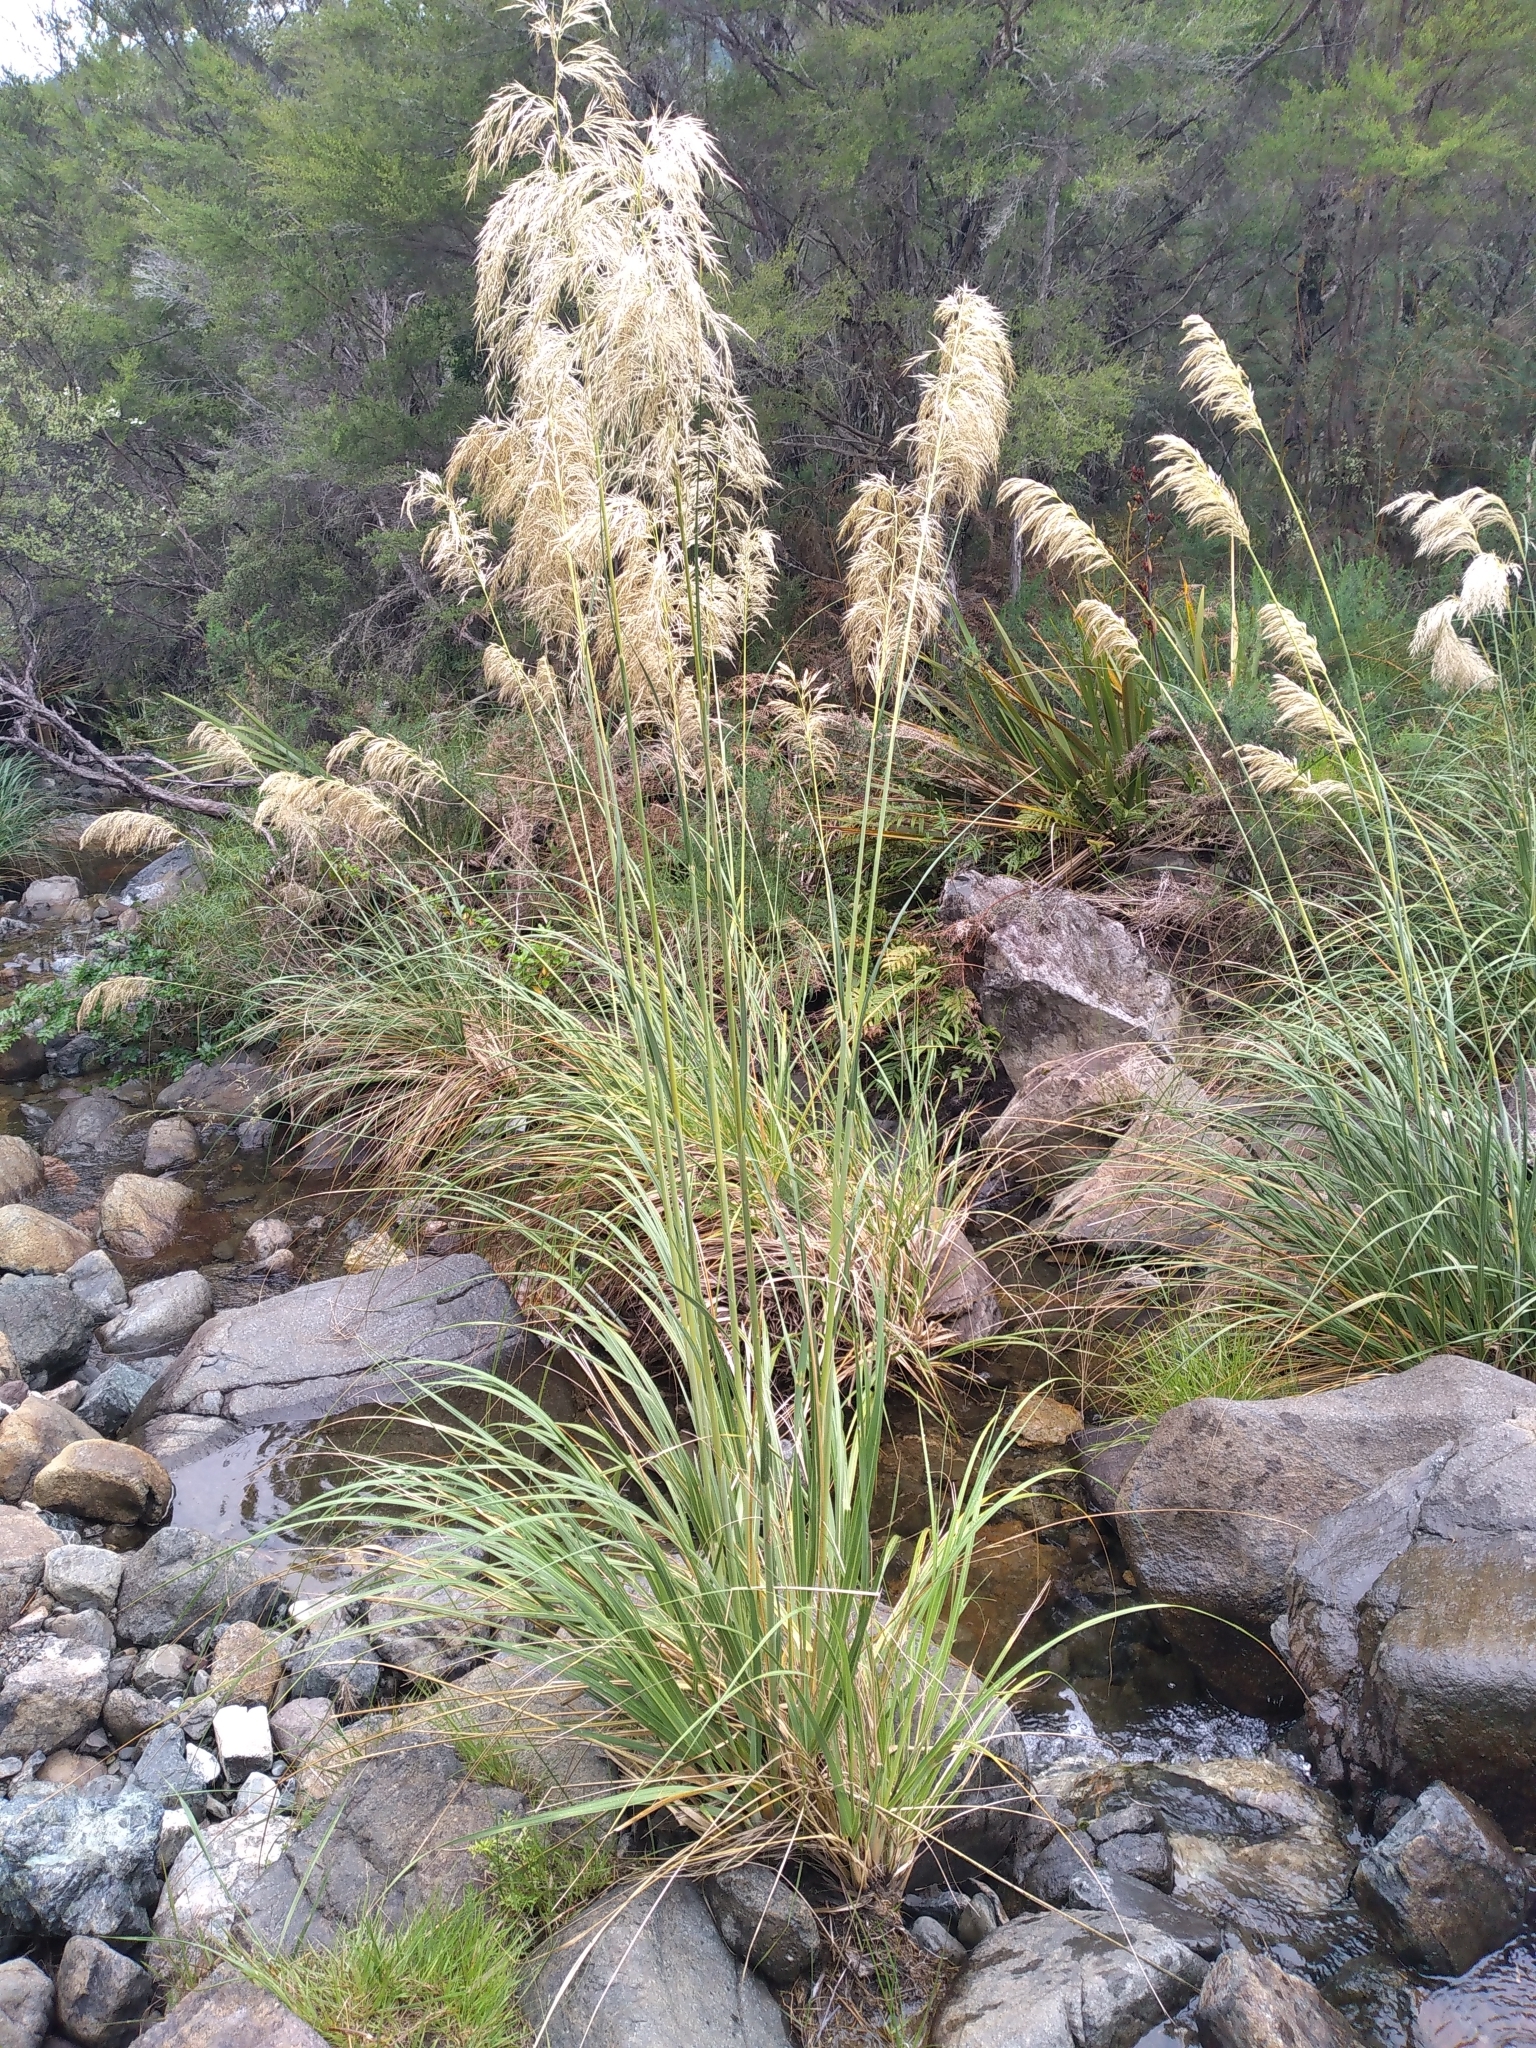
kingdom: Plantae
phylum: Tracheophyta
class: Liliopsida
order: Poales
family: Poaceae
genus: Austroderia
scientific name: Austroderia richardii
